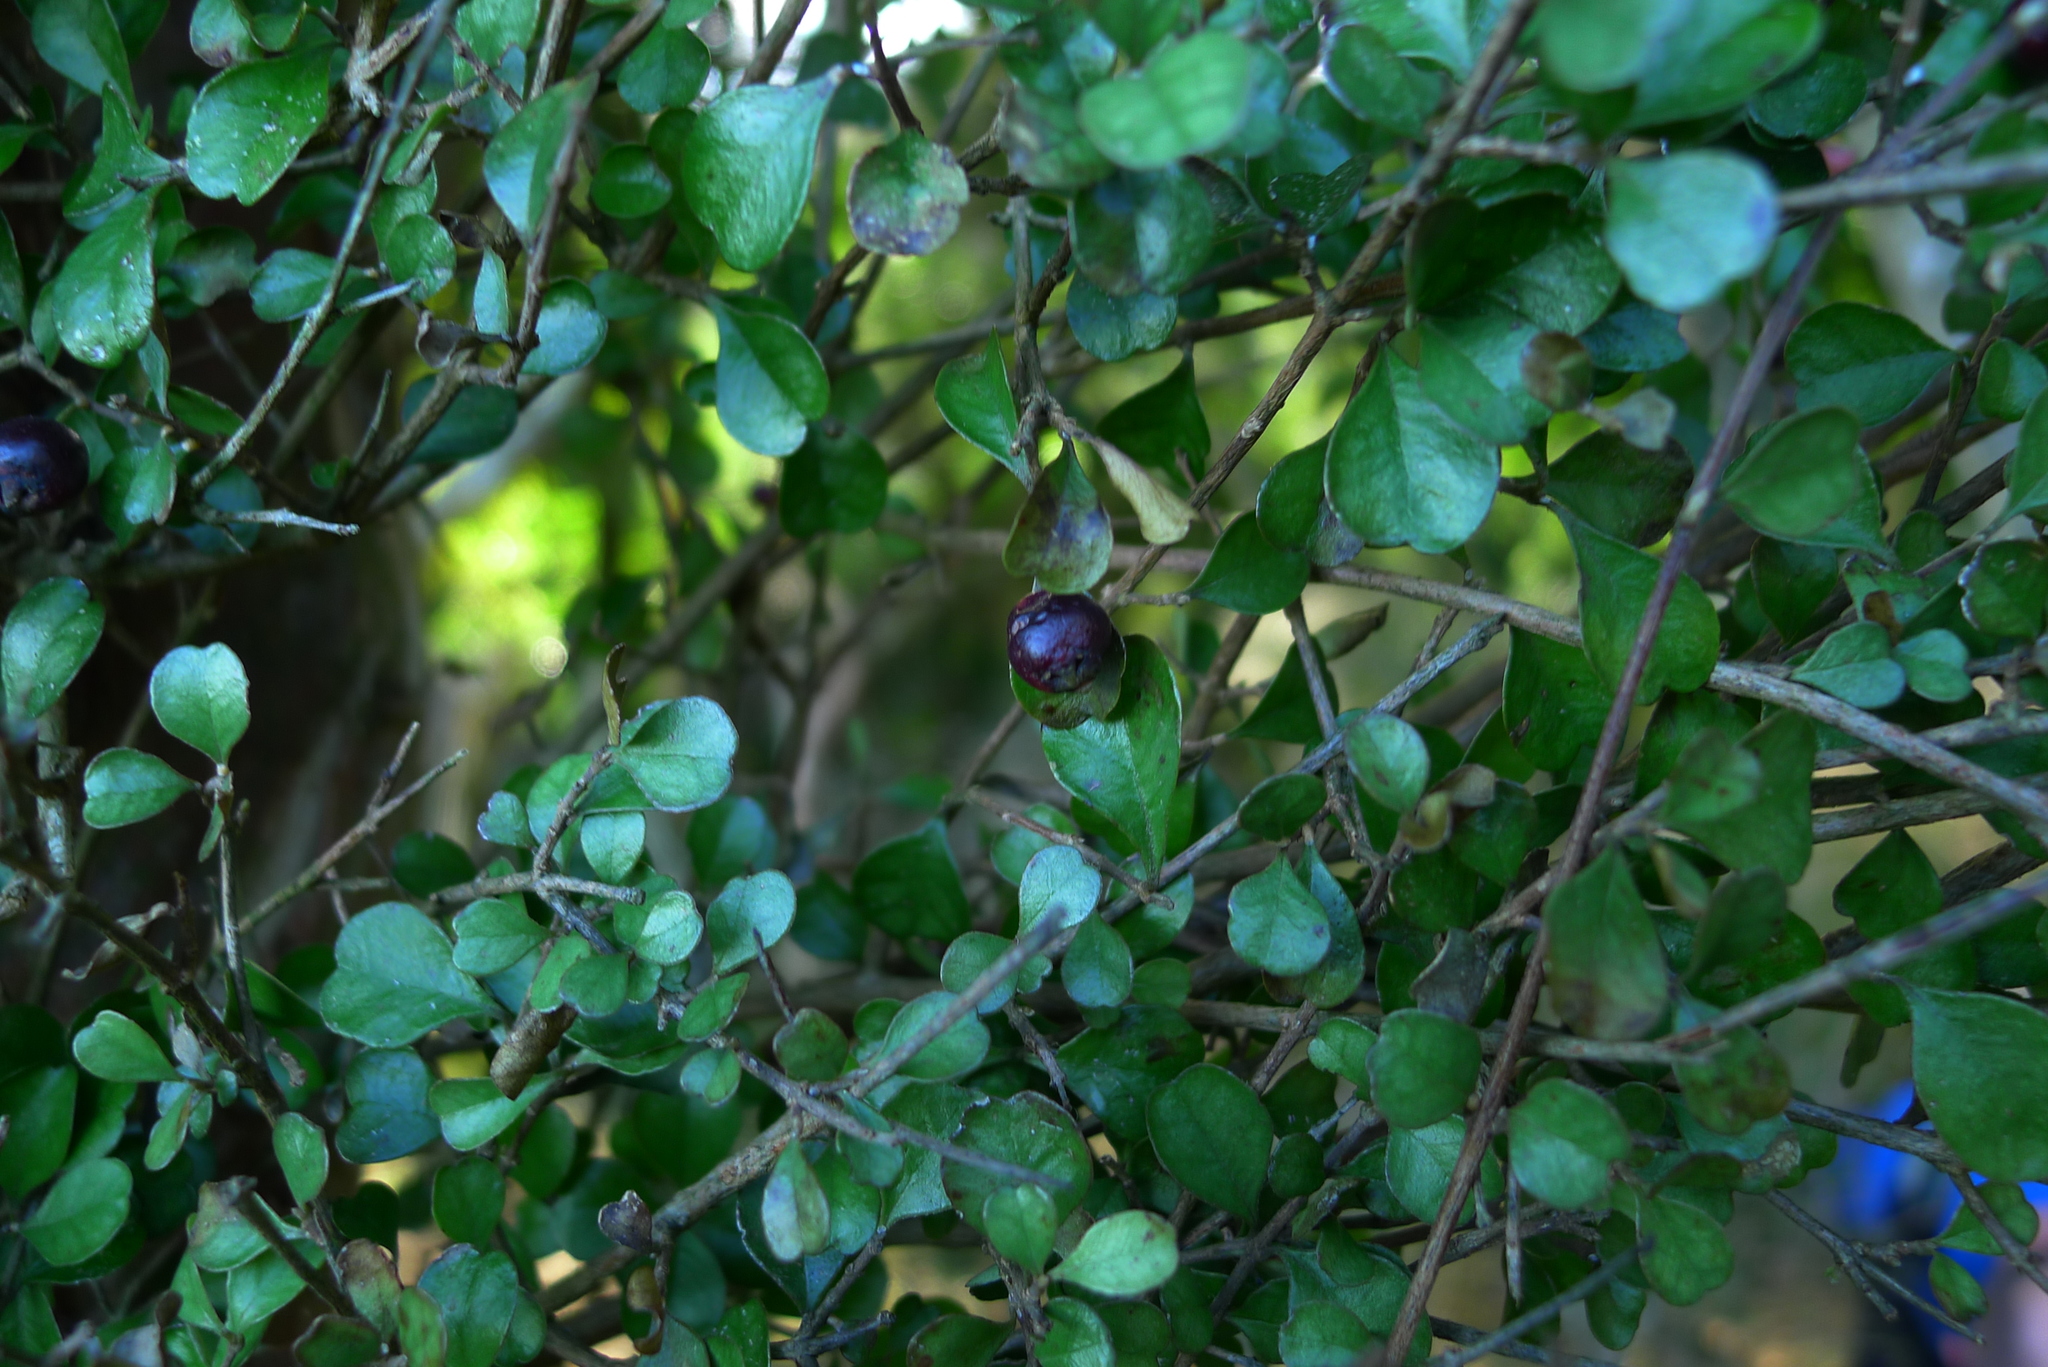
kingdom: Plantae
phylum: Tracheophyta
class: Magnoliopsida
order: Myrtales
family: Myrtaceae
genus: Lophomyrtus
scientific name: Lophomyrtus obcordata
